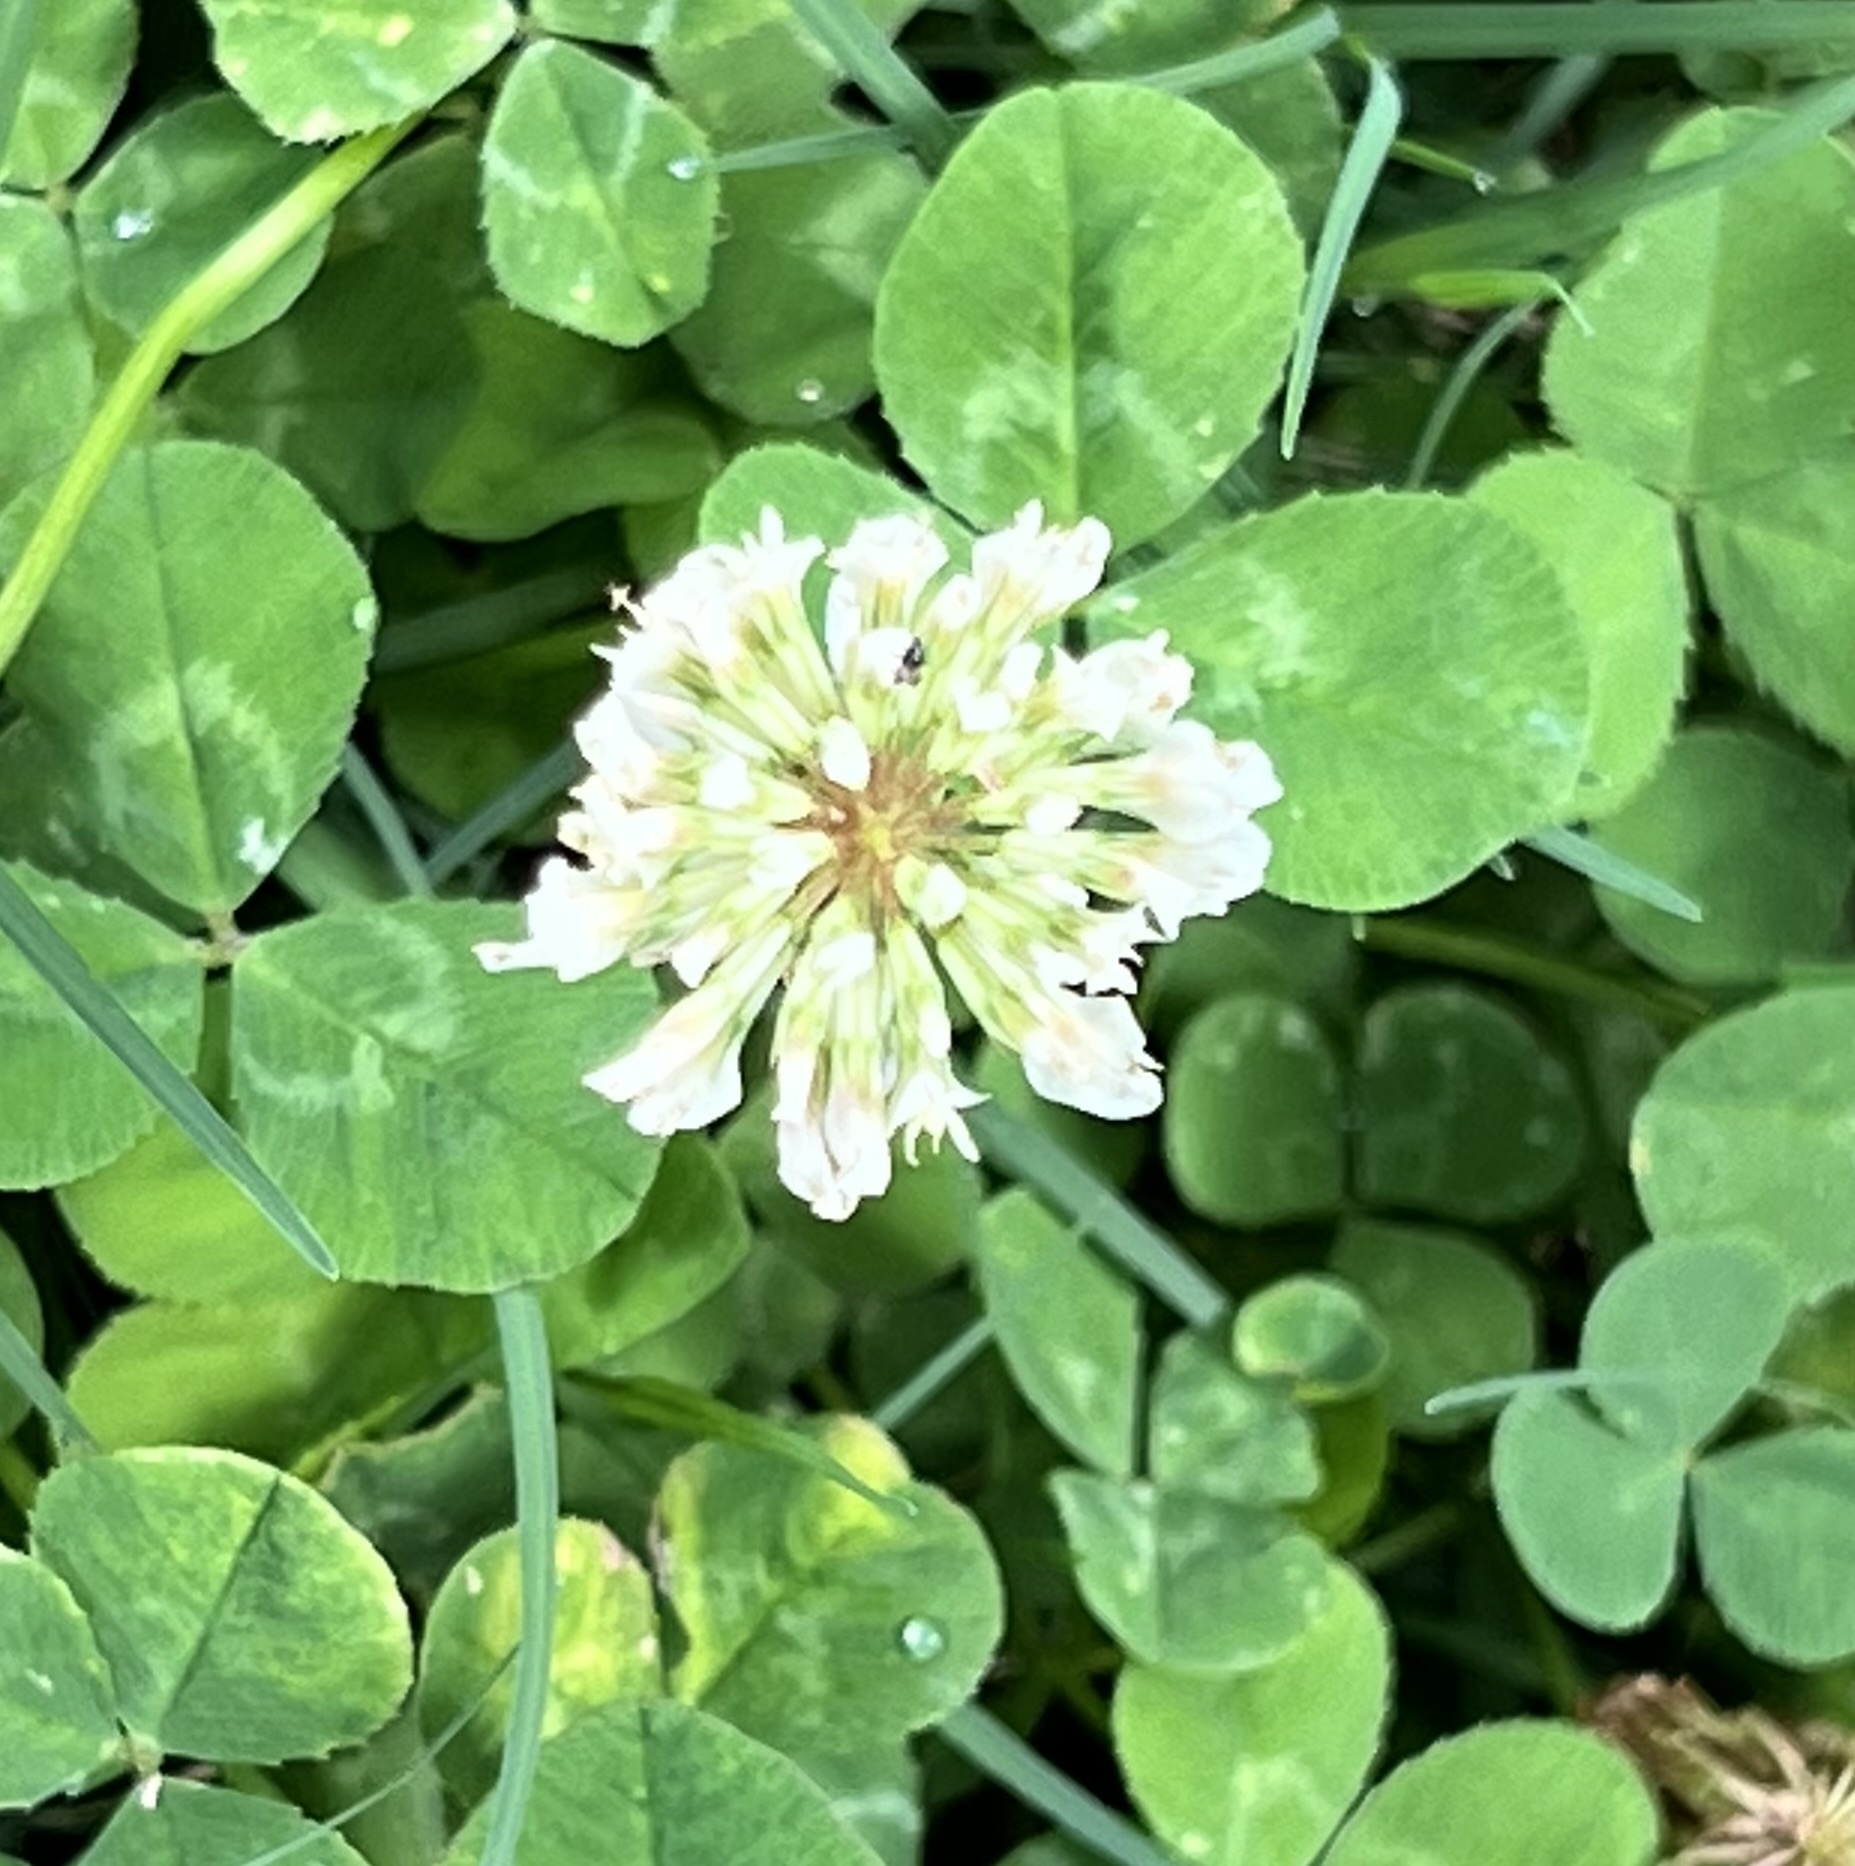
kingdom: Plantae
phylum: Tracheophyta
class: Magnoliopsida
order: Fabales
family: Fabaceae
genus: Trifolium
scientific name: Trifolium repens
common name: White clover
